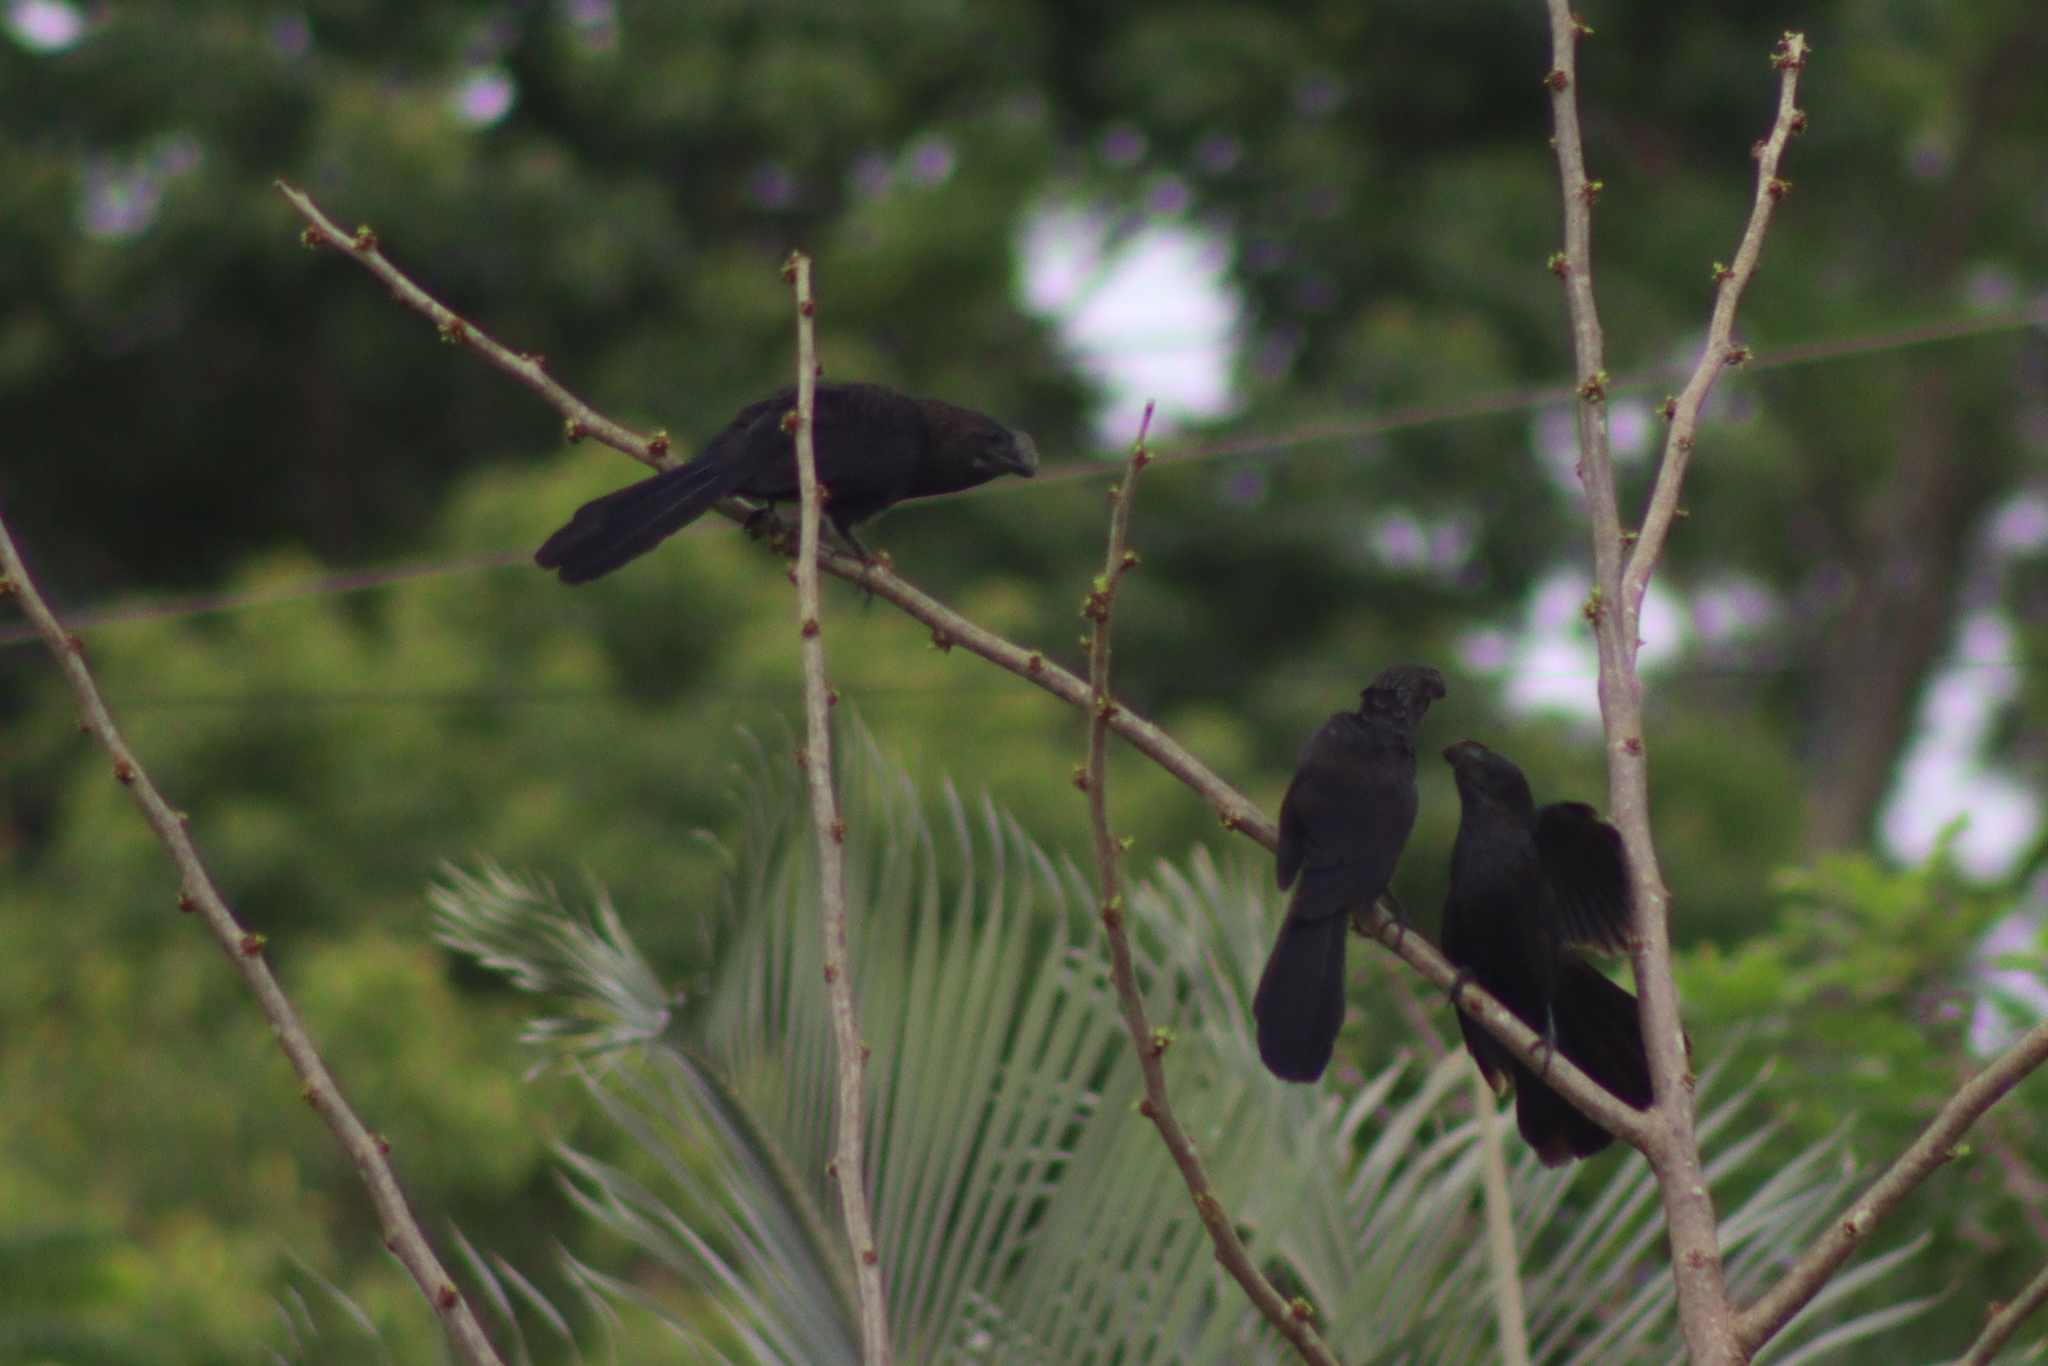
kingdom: Animalia
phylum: Chordata
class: Aves
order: Cuculiformes
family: Cuculidae
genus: Crotophaga
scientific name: Crotophaga ani
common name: Smooth-billed ani
